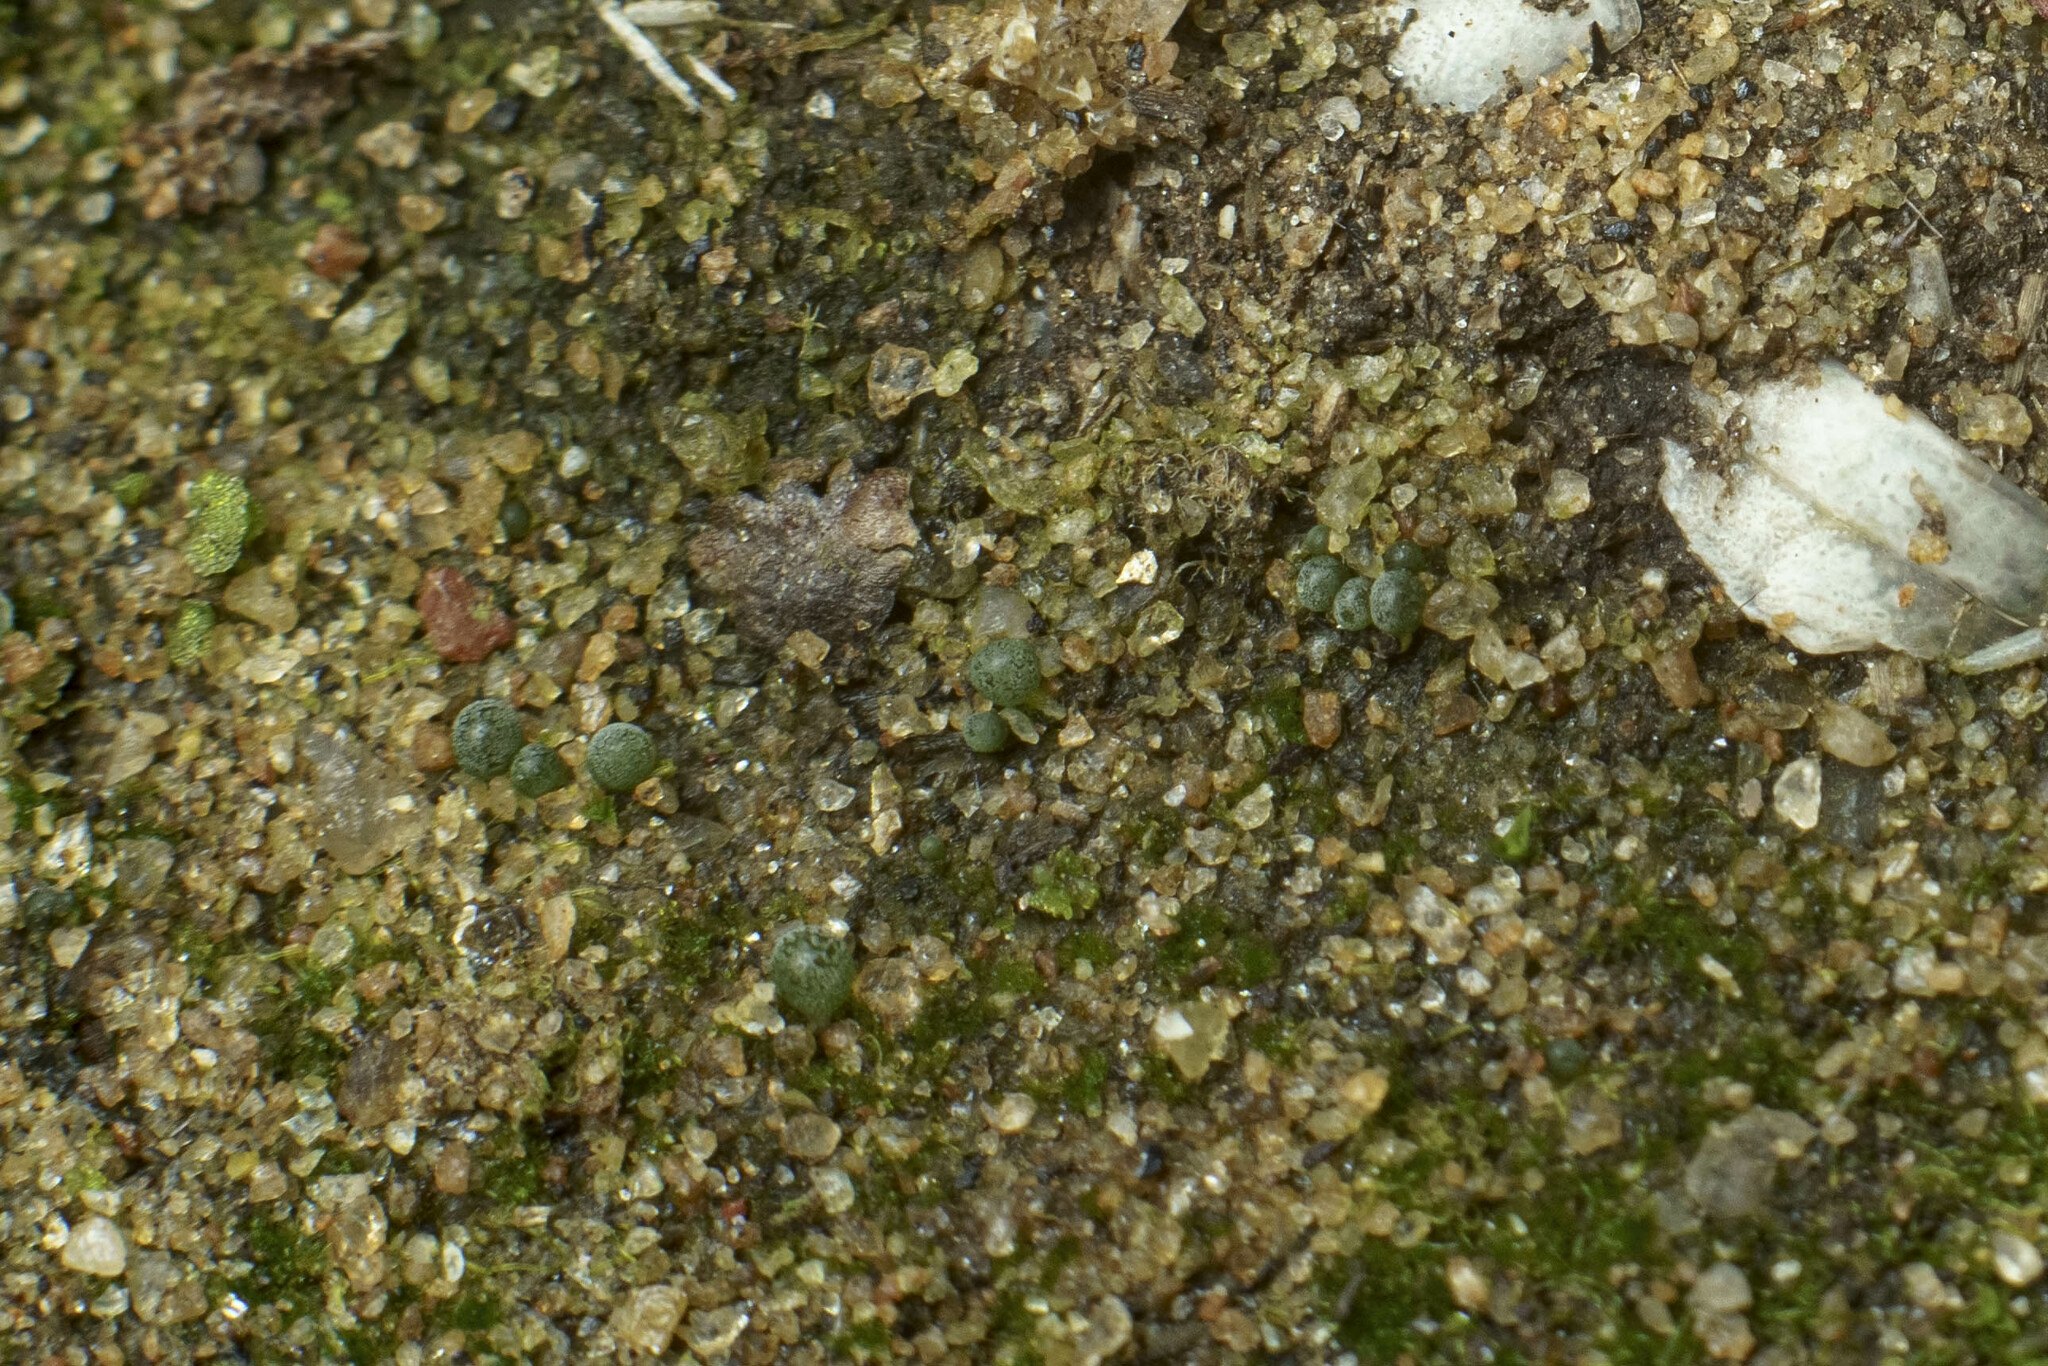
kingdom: Chromista
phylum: Ochrophyta
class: Xanthophyceae
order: Botrydiales
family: Botrydiaceae
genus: Botrydium
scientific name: Botrydium
